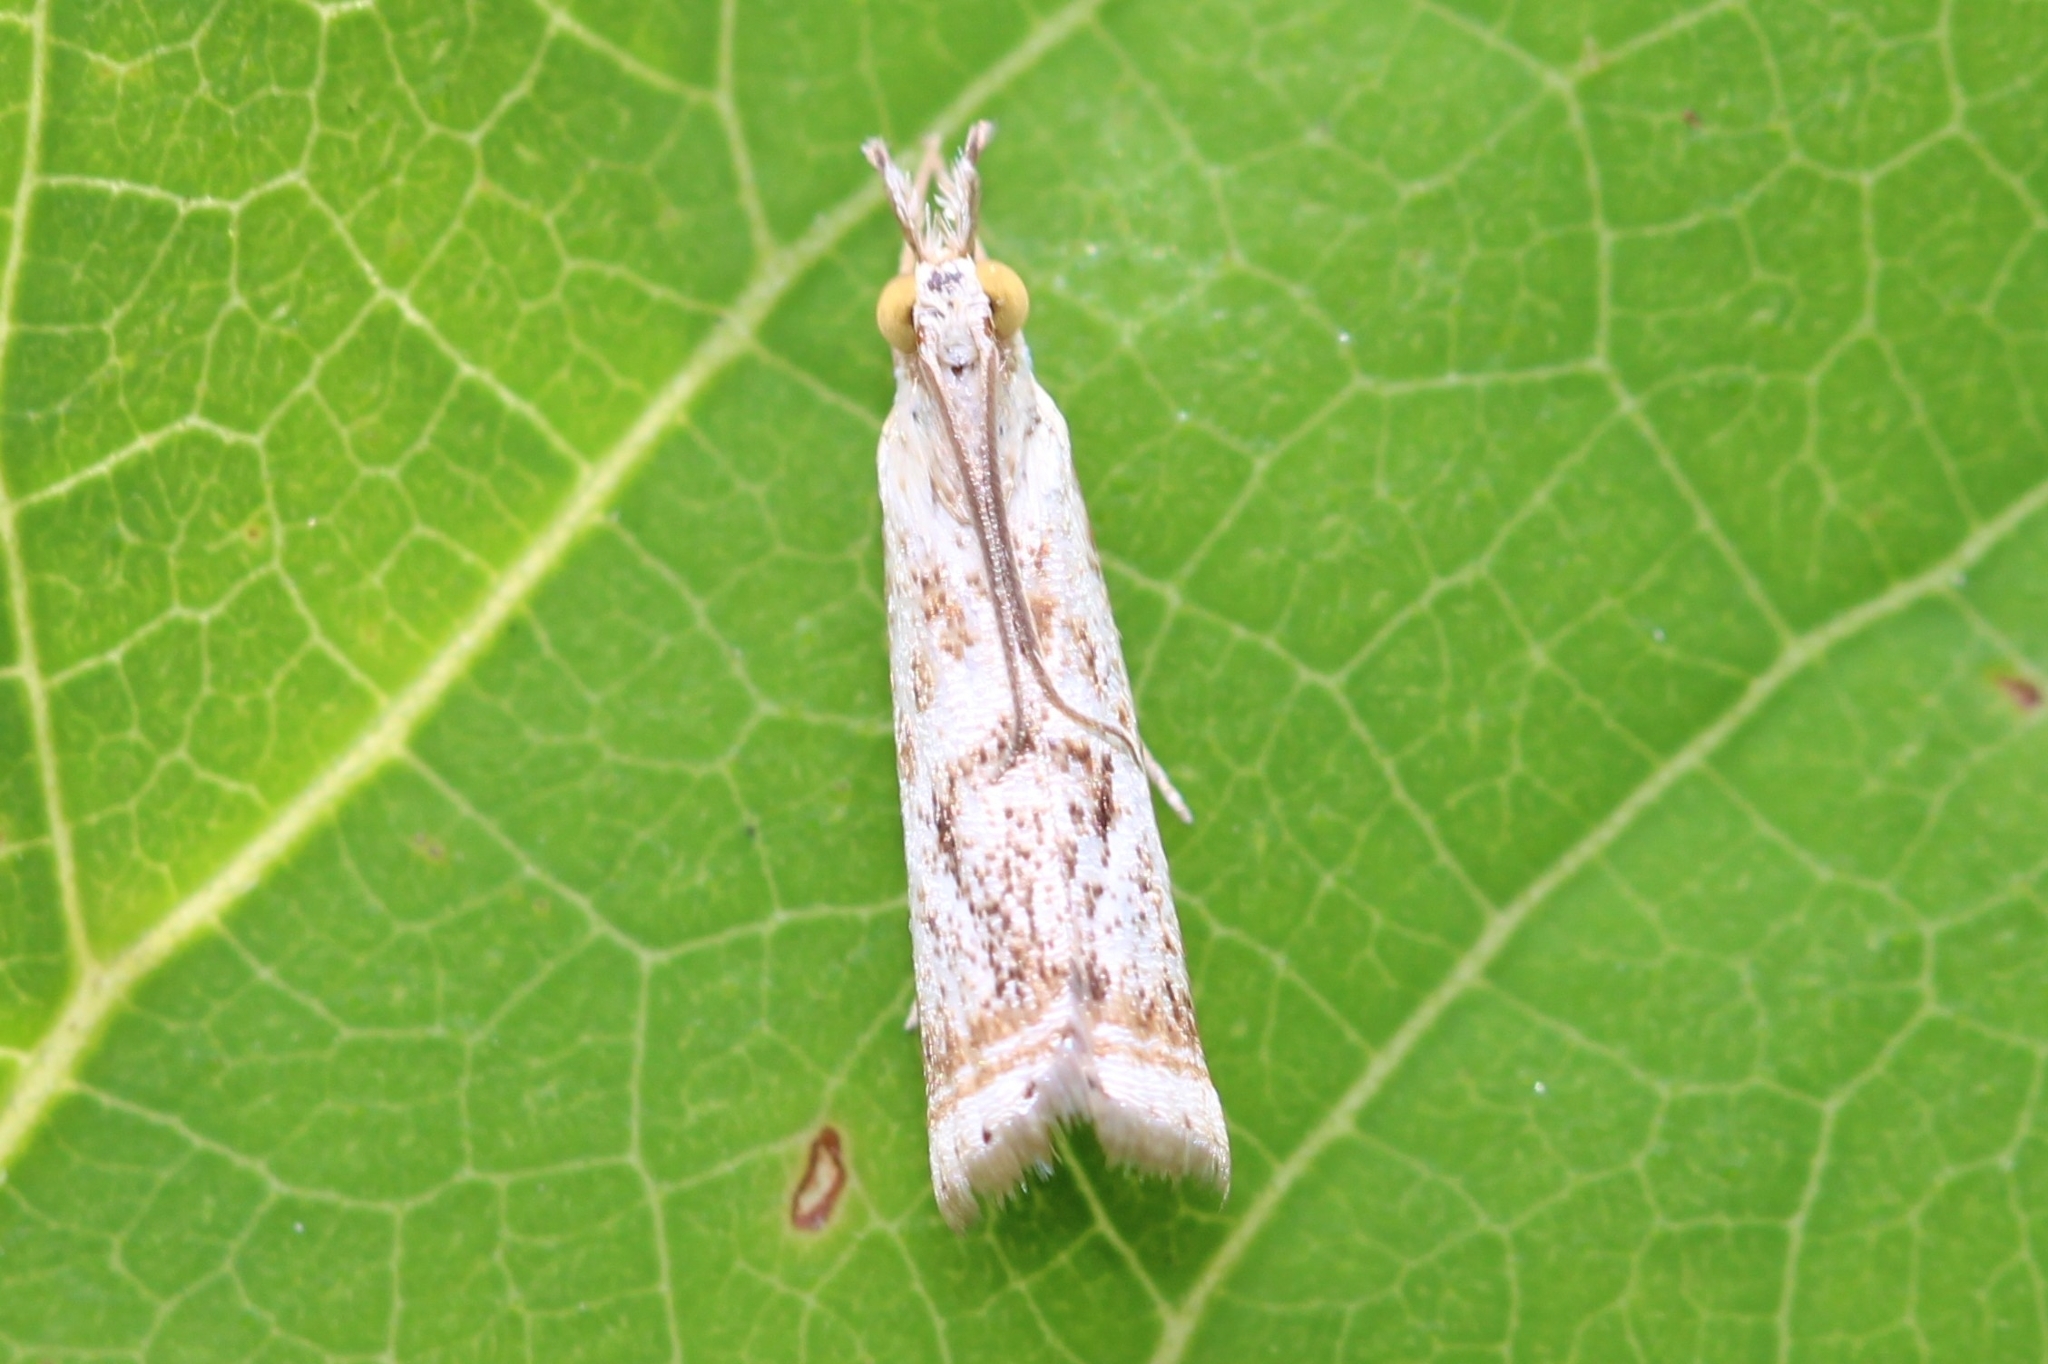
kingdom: Animalia
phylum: Arthropoda
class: Insecta
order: Lepidoptera
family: Crambidae
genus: Microcrambus
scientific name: Microcrambus elegans
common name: Elegant grass-veneer
